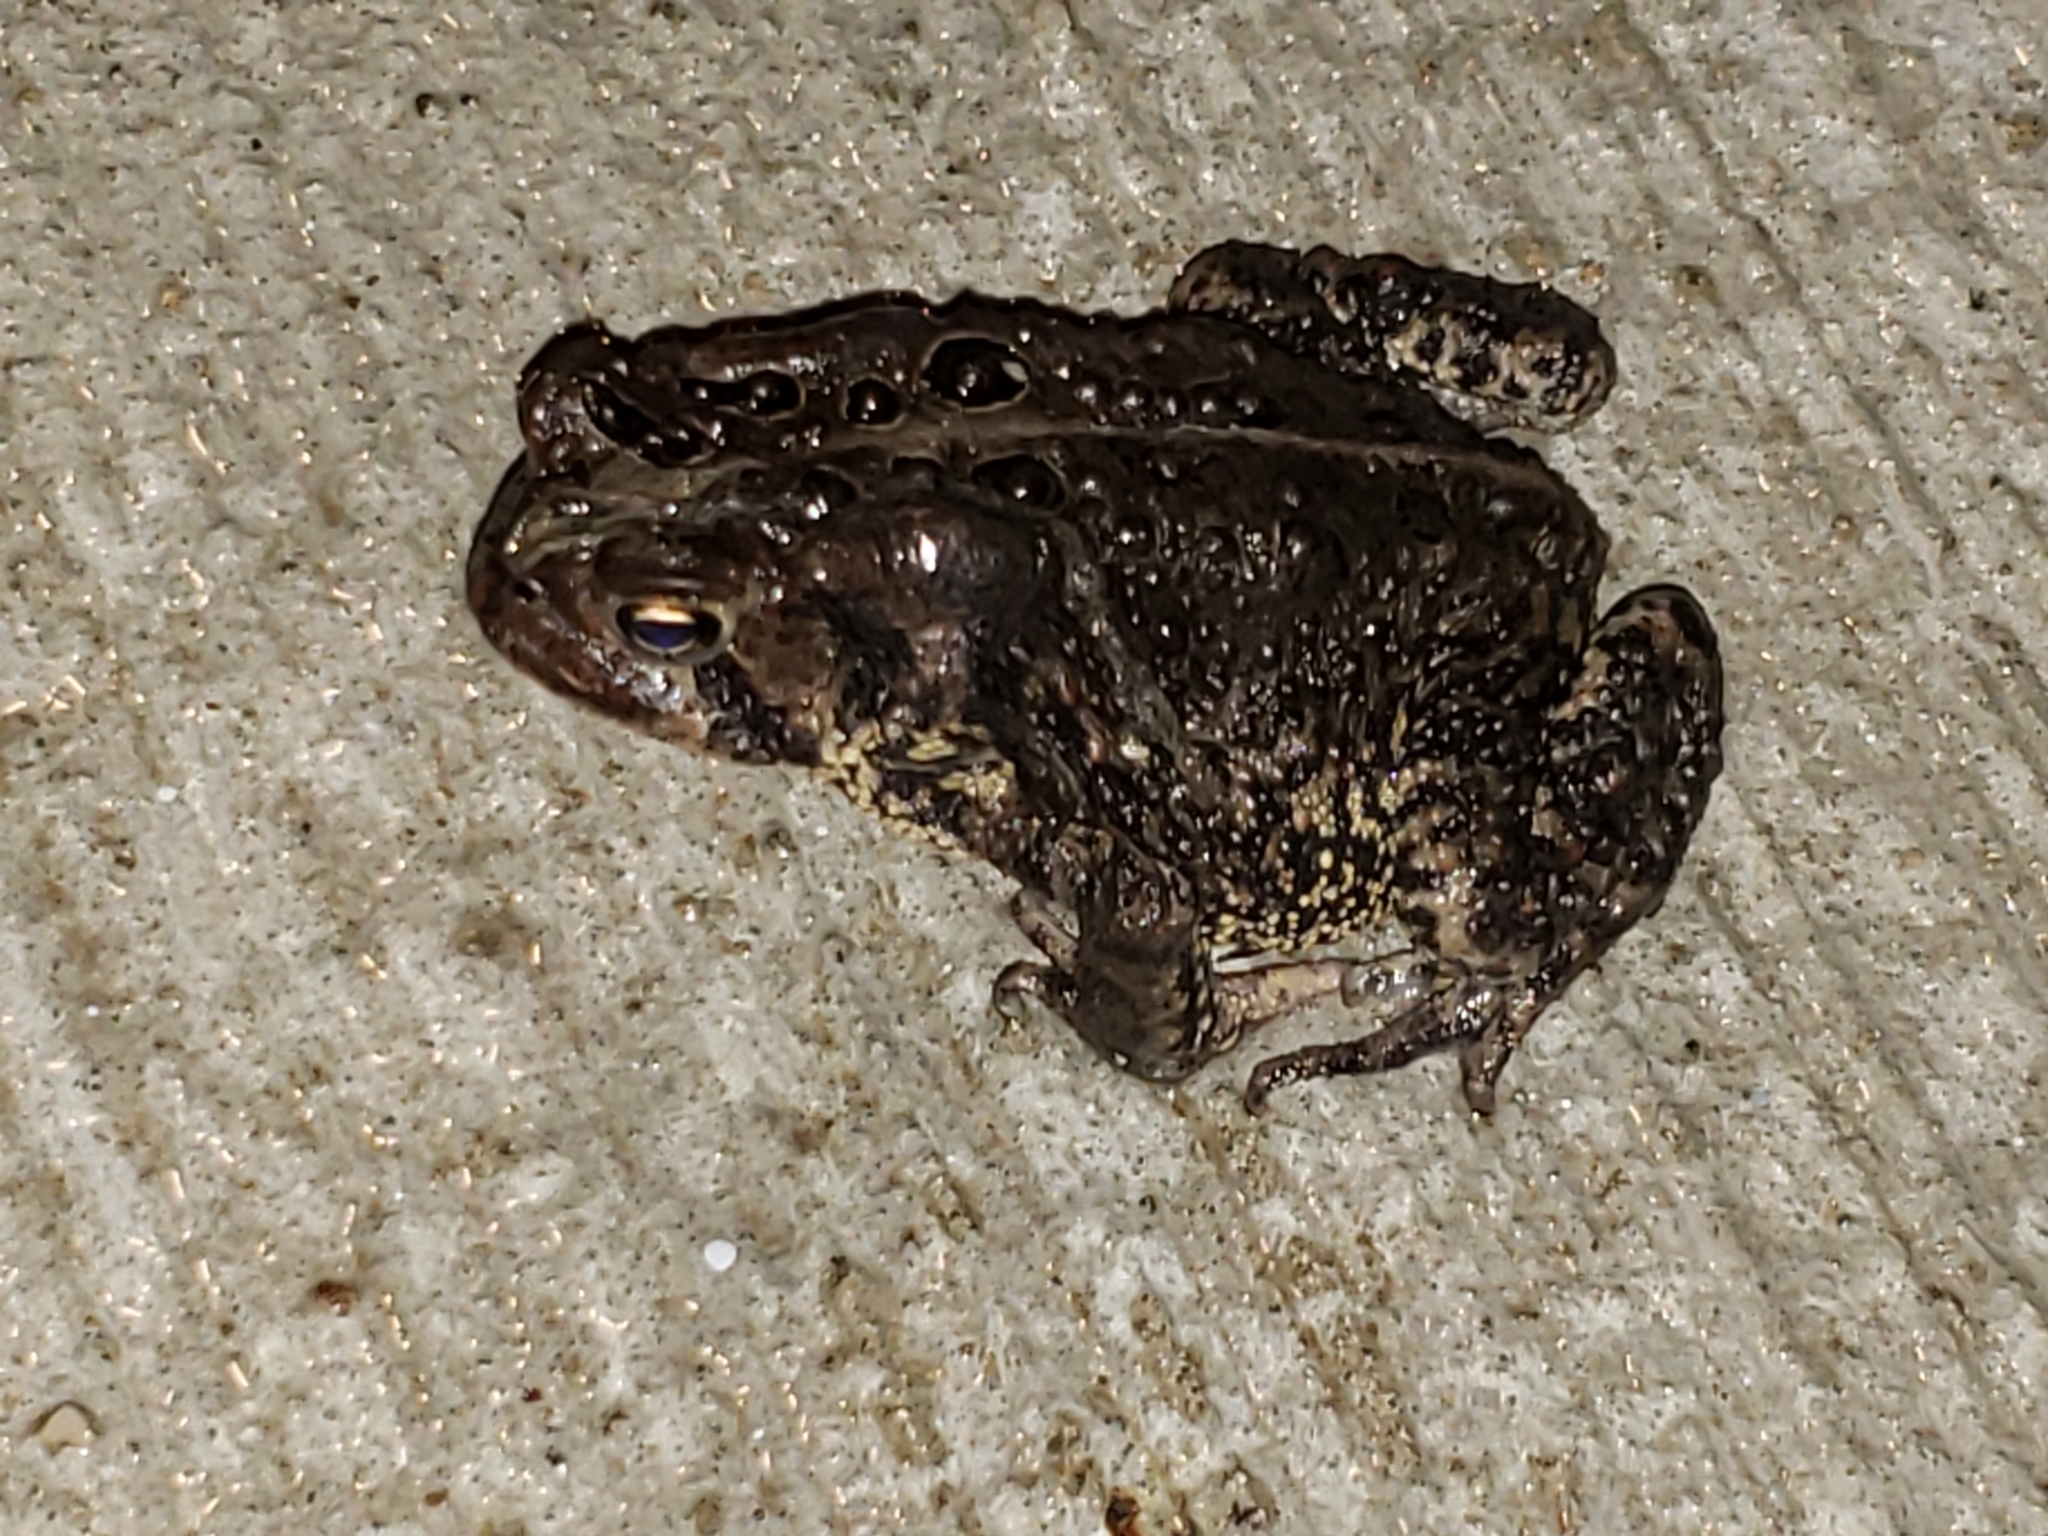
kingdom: Animalia
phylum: Chordata
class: Amphibia
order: Anura
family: Bufonidae
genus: Anaxyrus
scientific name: Anaxyrus americanus
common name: American toad
